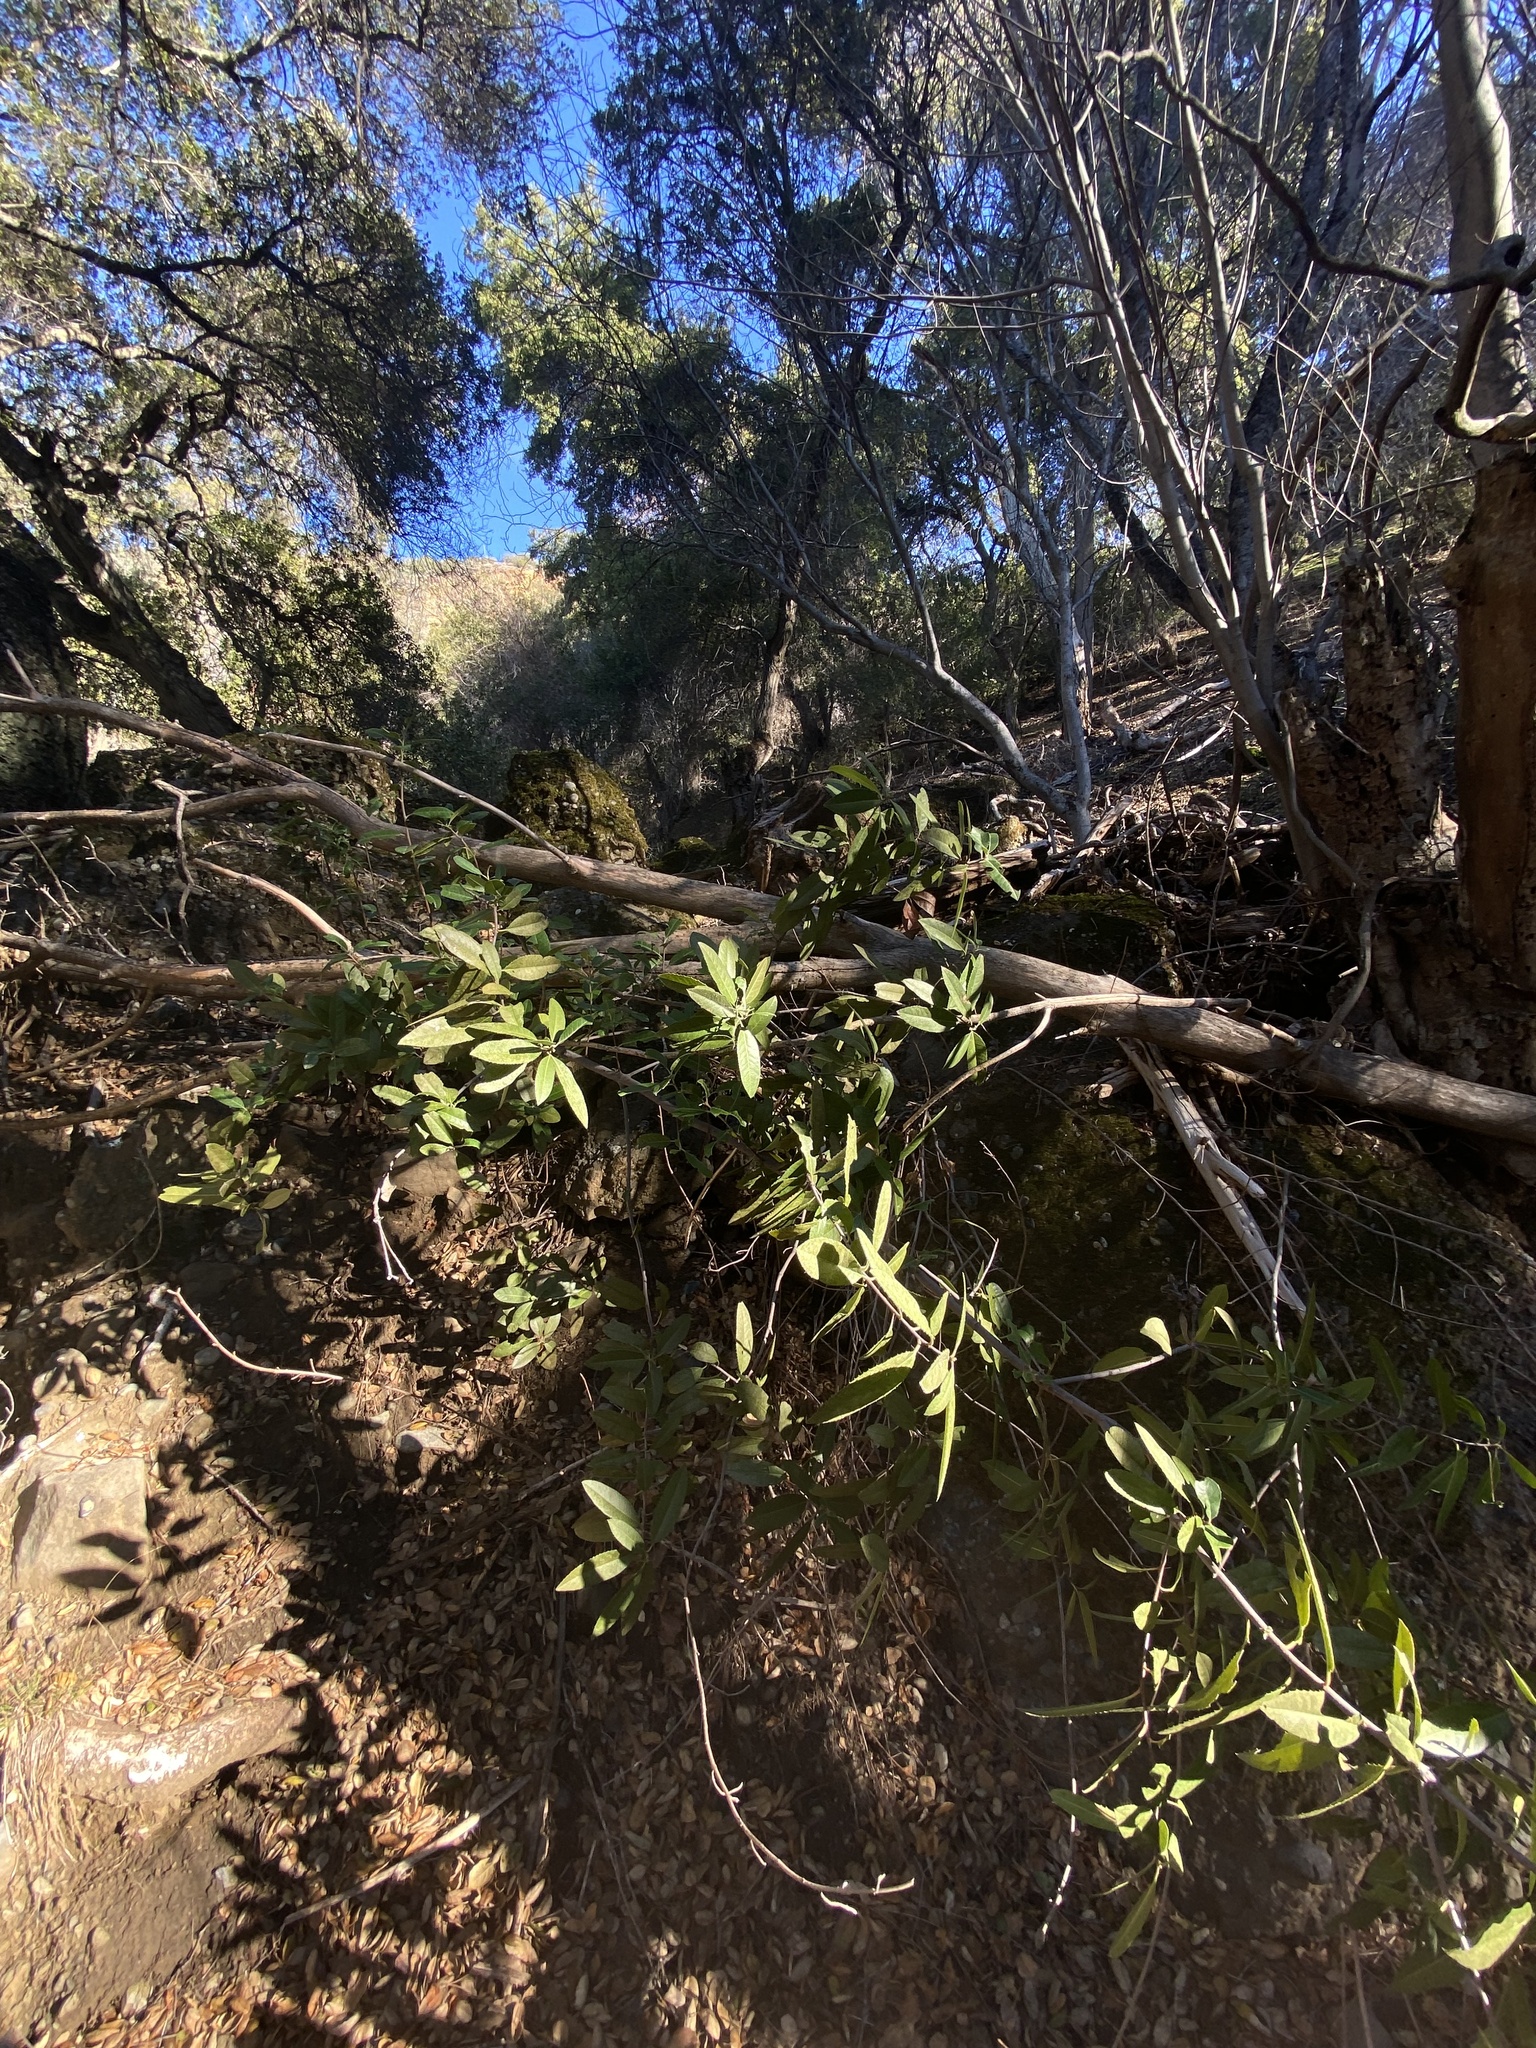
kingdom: Plantae
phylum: Tracheophyta
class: Magnoliopsida
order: Rosales
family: Rosaceae
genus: Heteromeles
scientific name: Heteromeles arbutifolia
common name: California-holly
